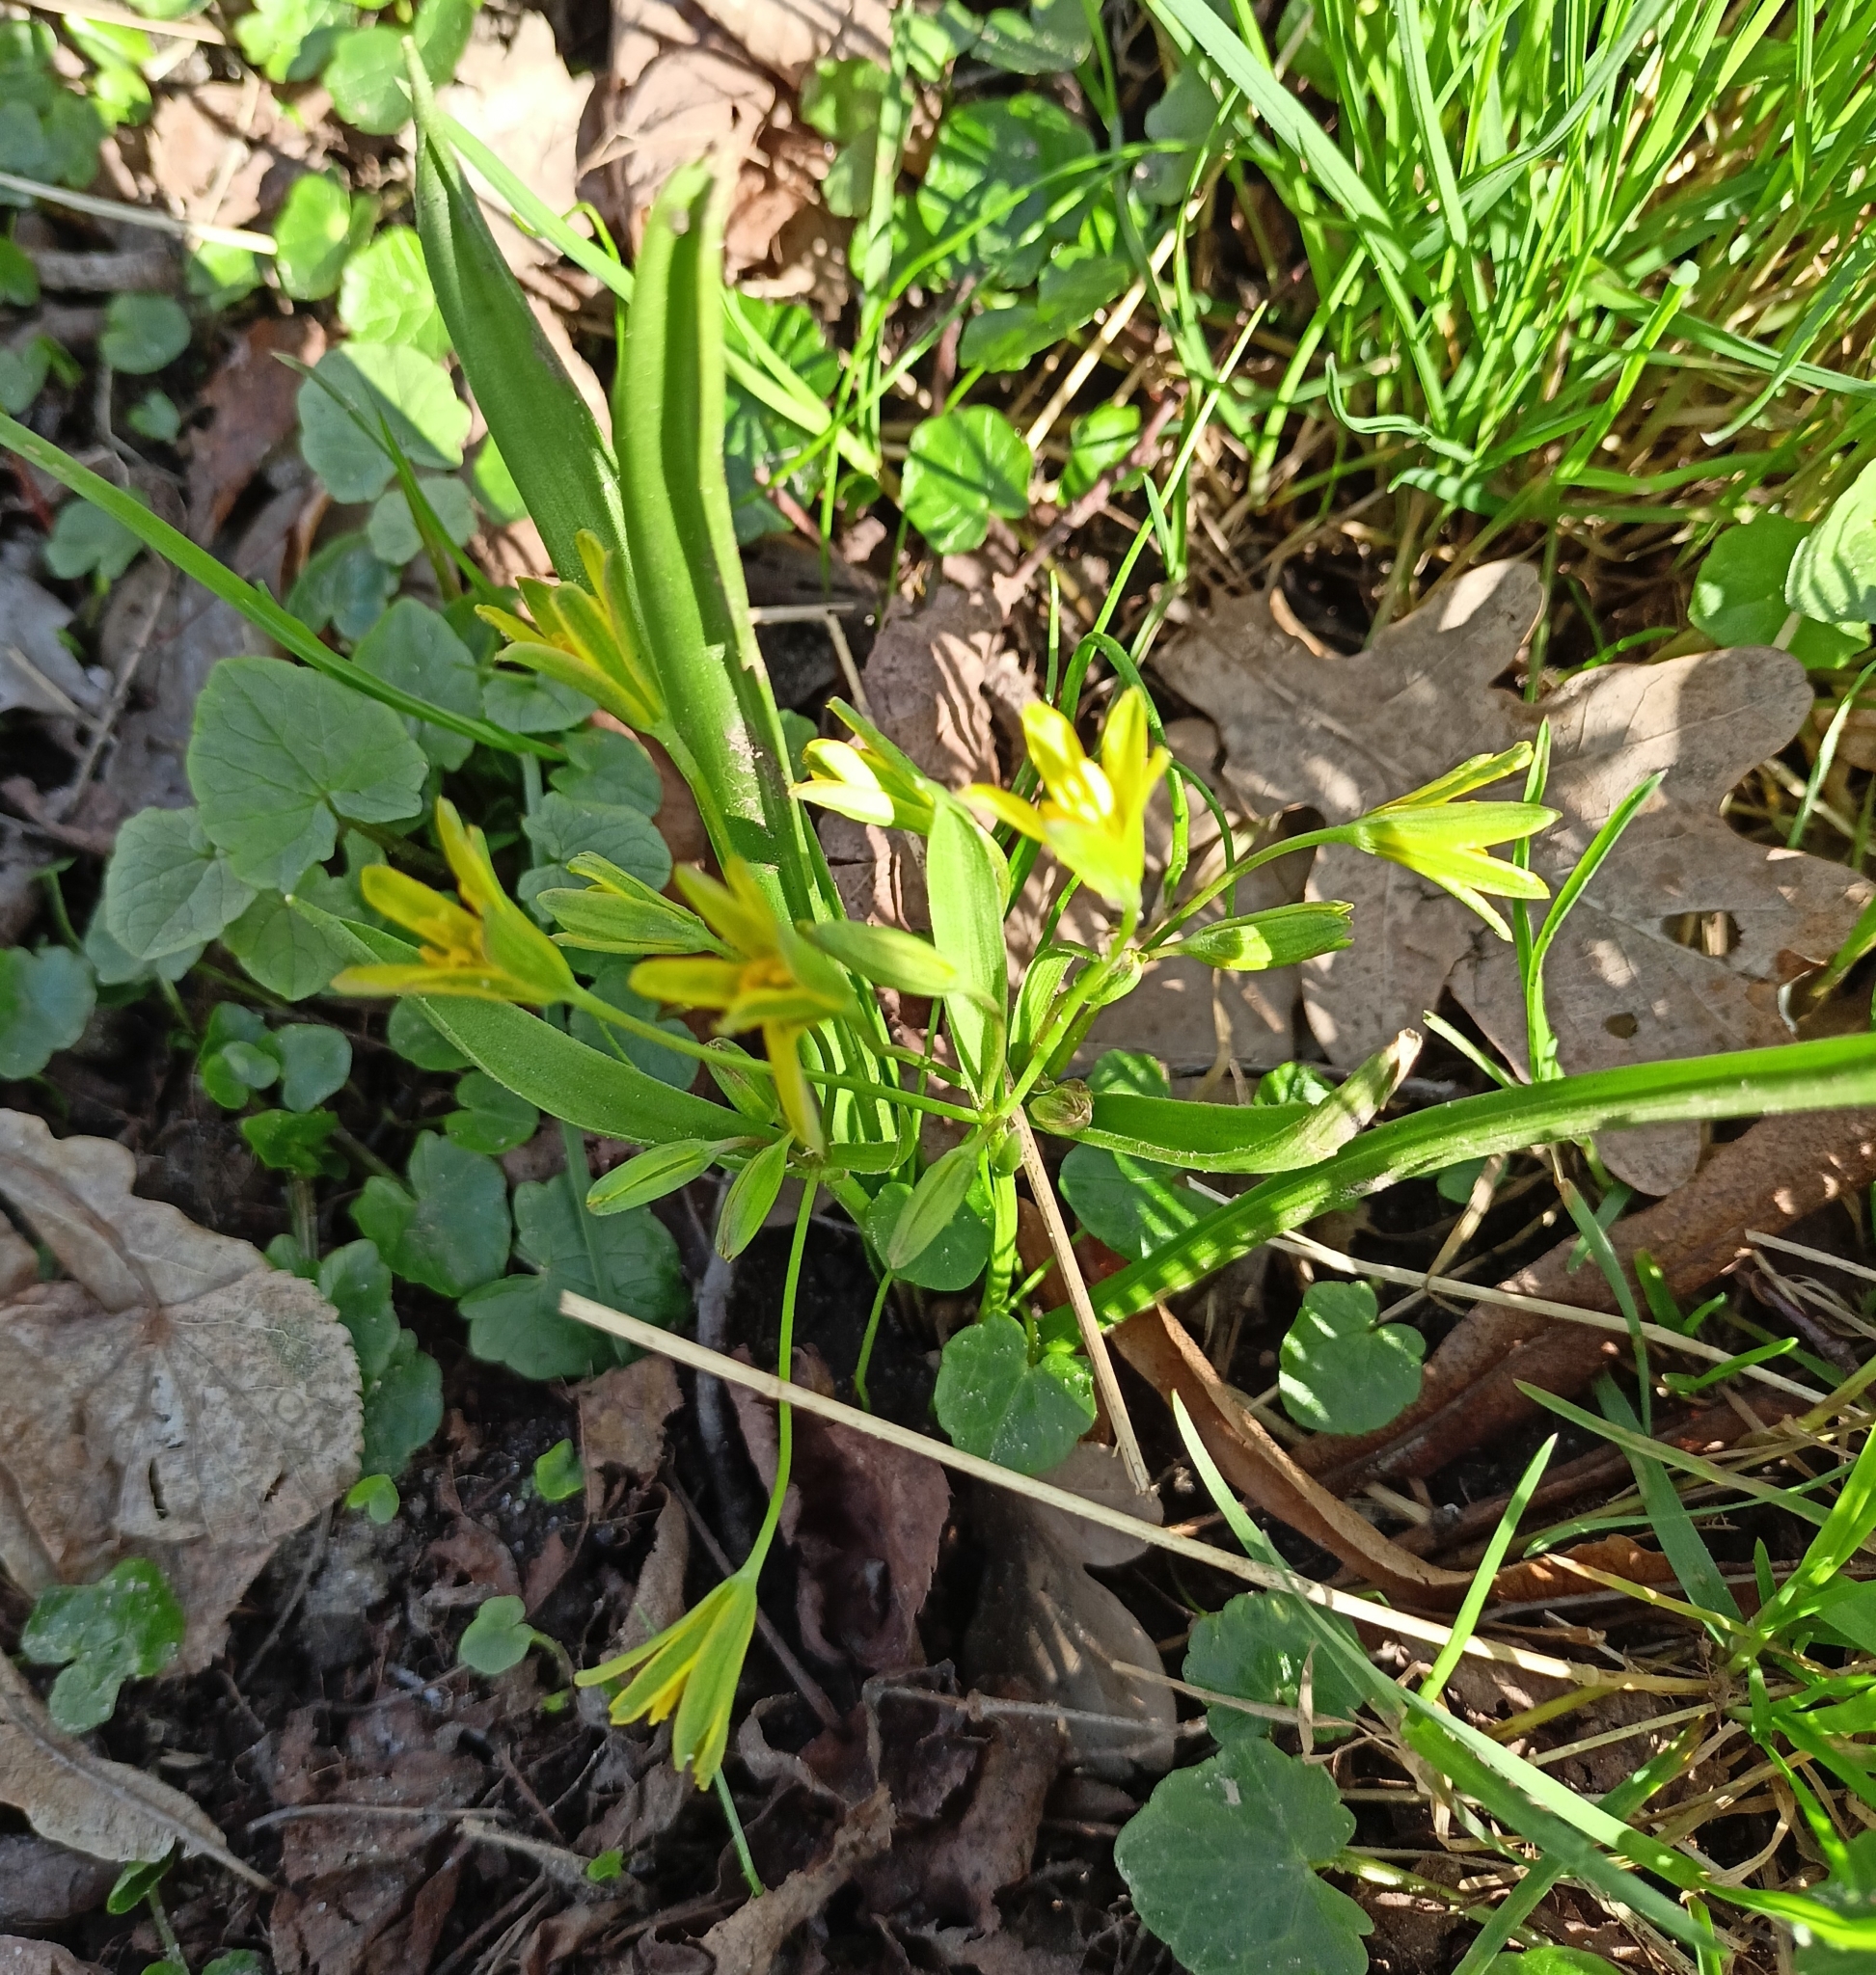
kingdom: Plantae
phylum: Tracheophyta
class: Liliopsida
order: Liliales
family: Liliaceae
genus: Gagea
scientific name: Gagea lutea
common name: Yellow star-of-bethlehem
